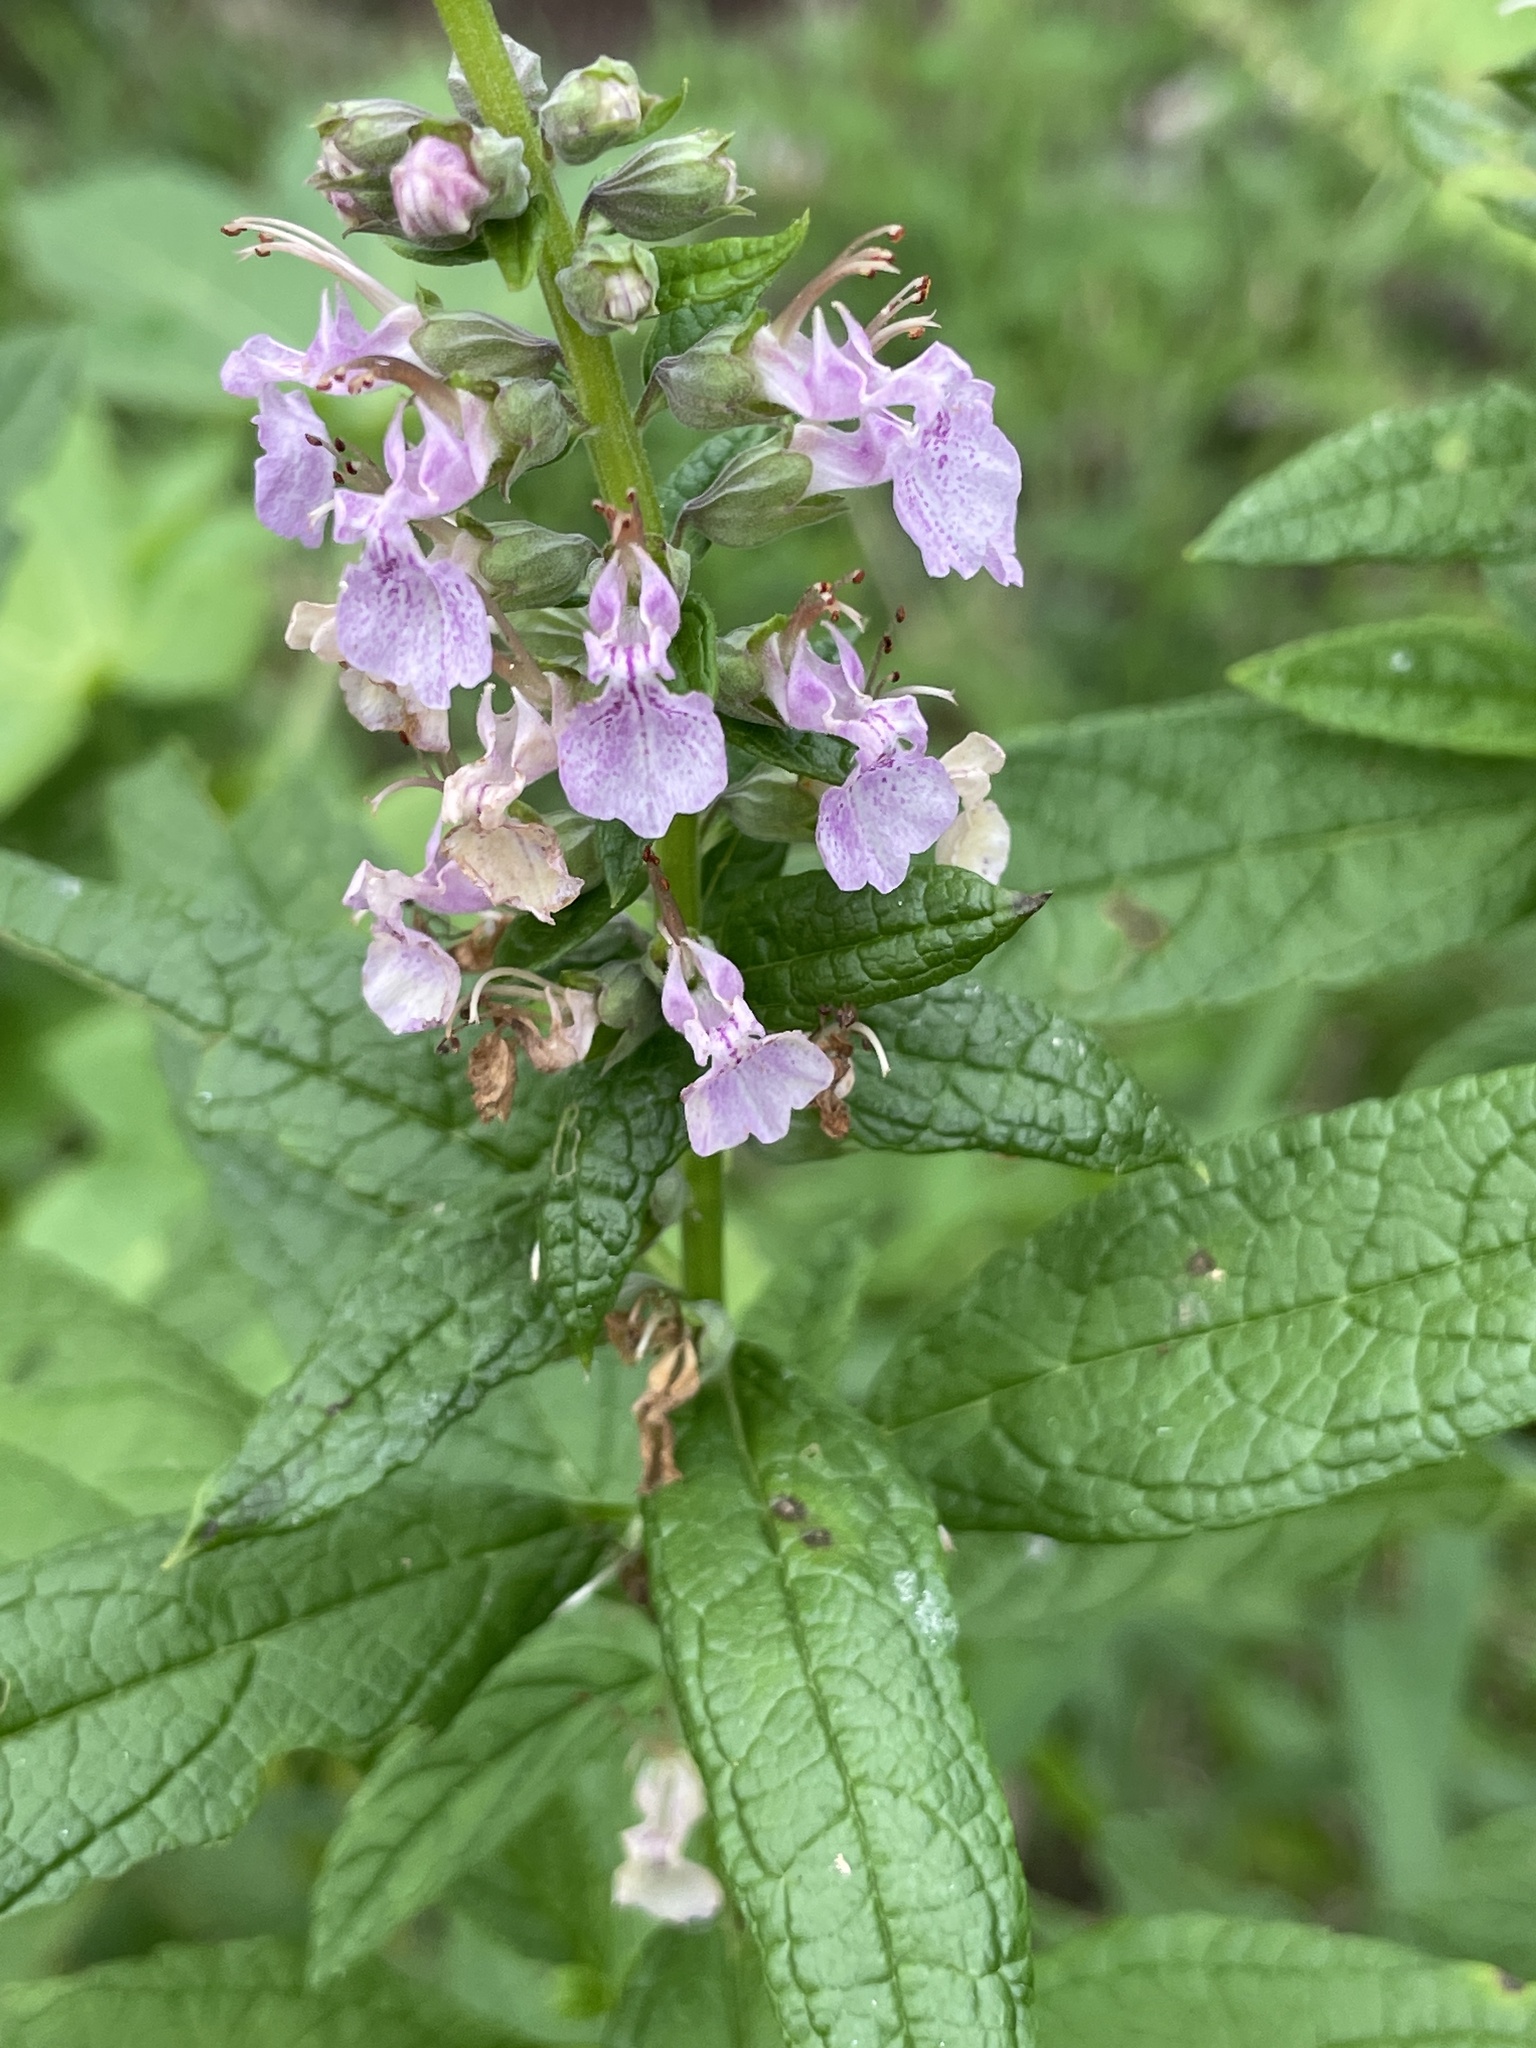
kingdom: Plantae
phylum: Tracheophyta
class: Magnoliopsida
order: Lamiales
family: Lamiaceae
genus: Teucrium
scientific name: Teucrium canadense
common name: American germander
